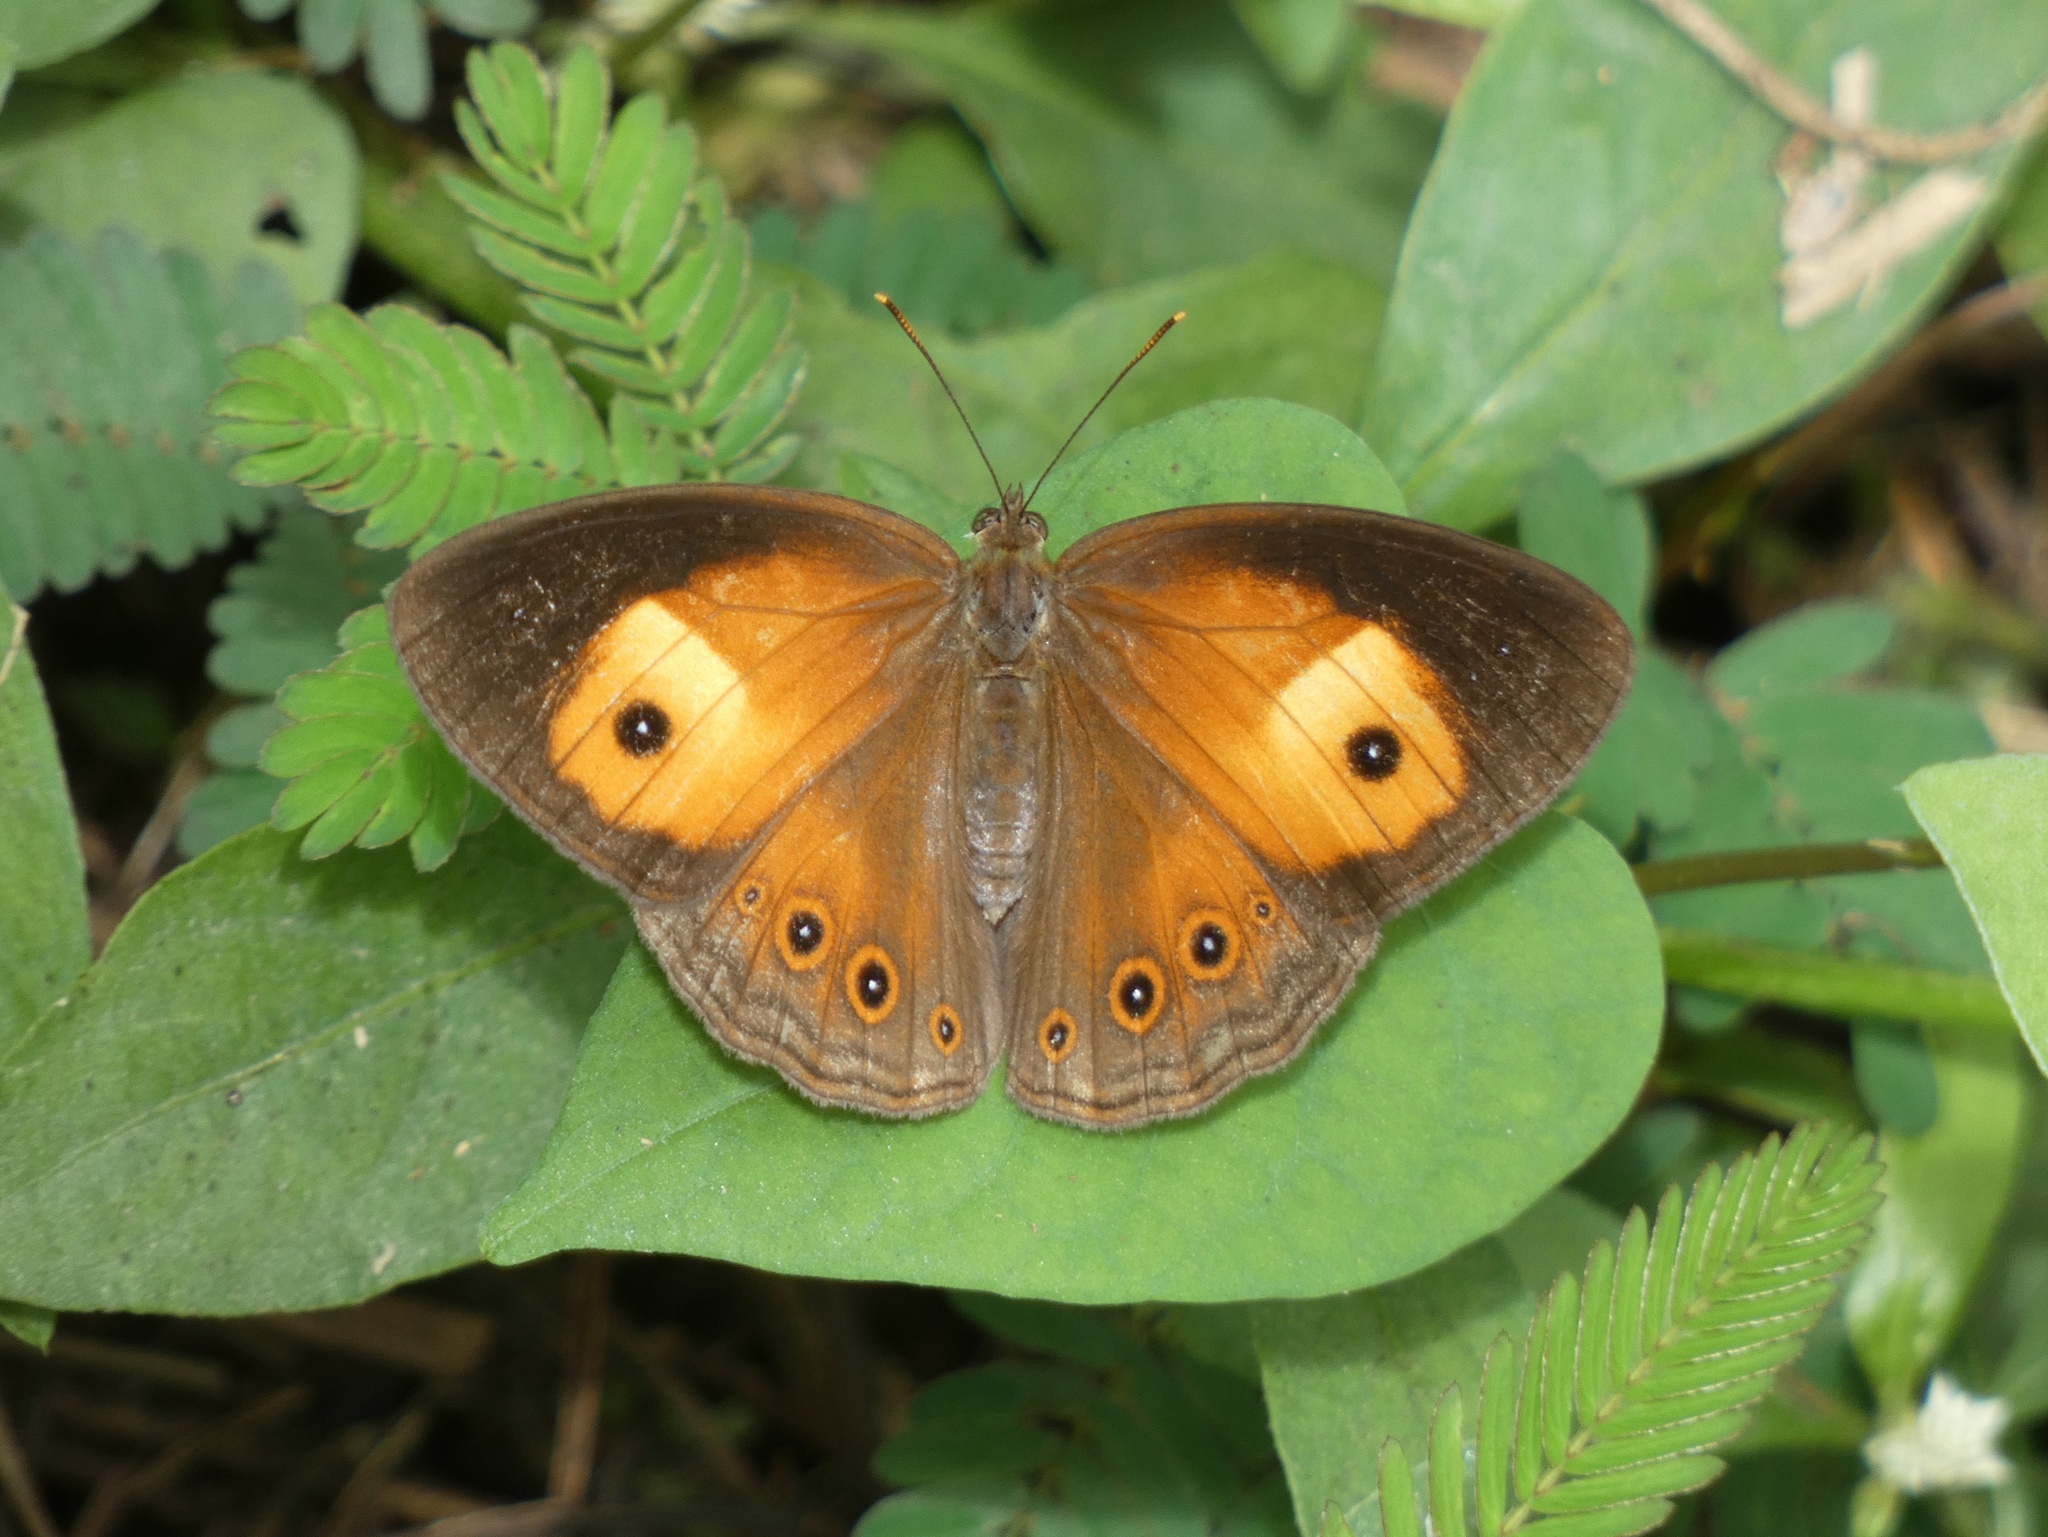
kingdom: Animalia
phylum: Arthropoda
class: Insecta
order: Lepidoptera
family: Nymphalidae
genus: Mycalesis
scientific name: Mycalesis terminus
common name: Orange bushbrown
